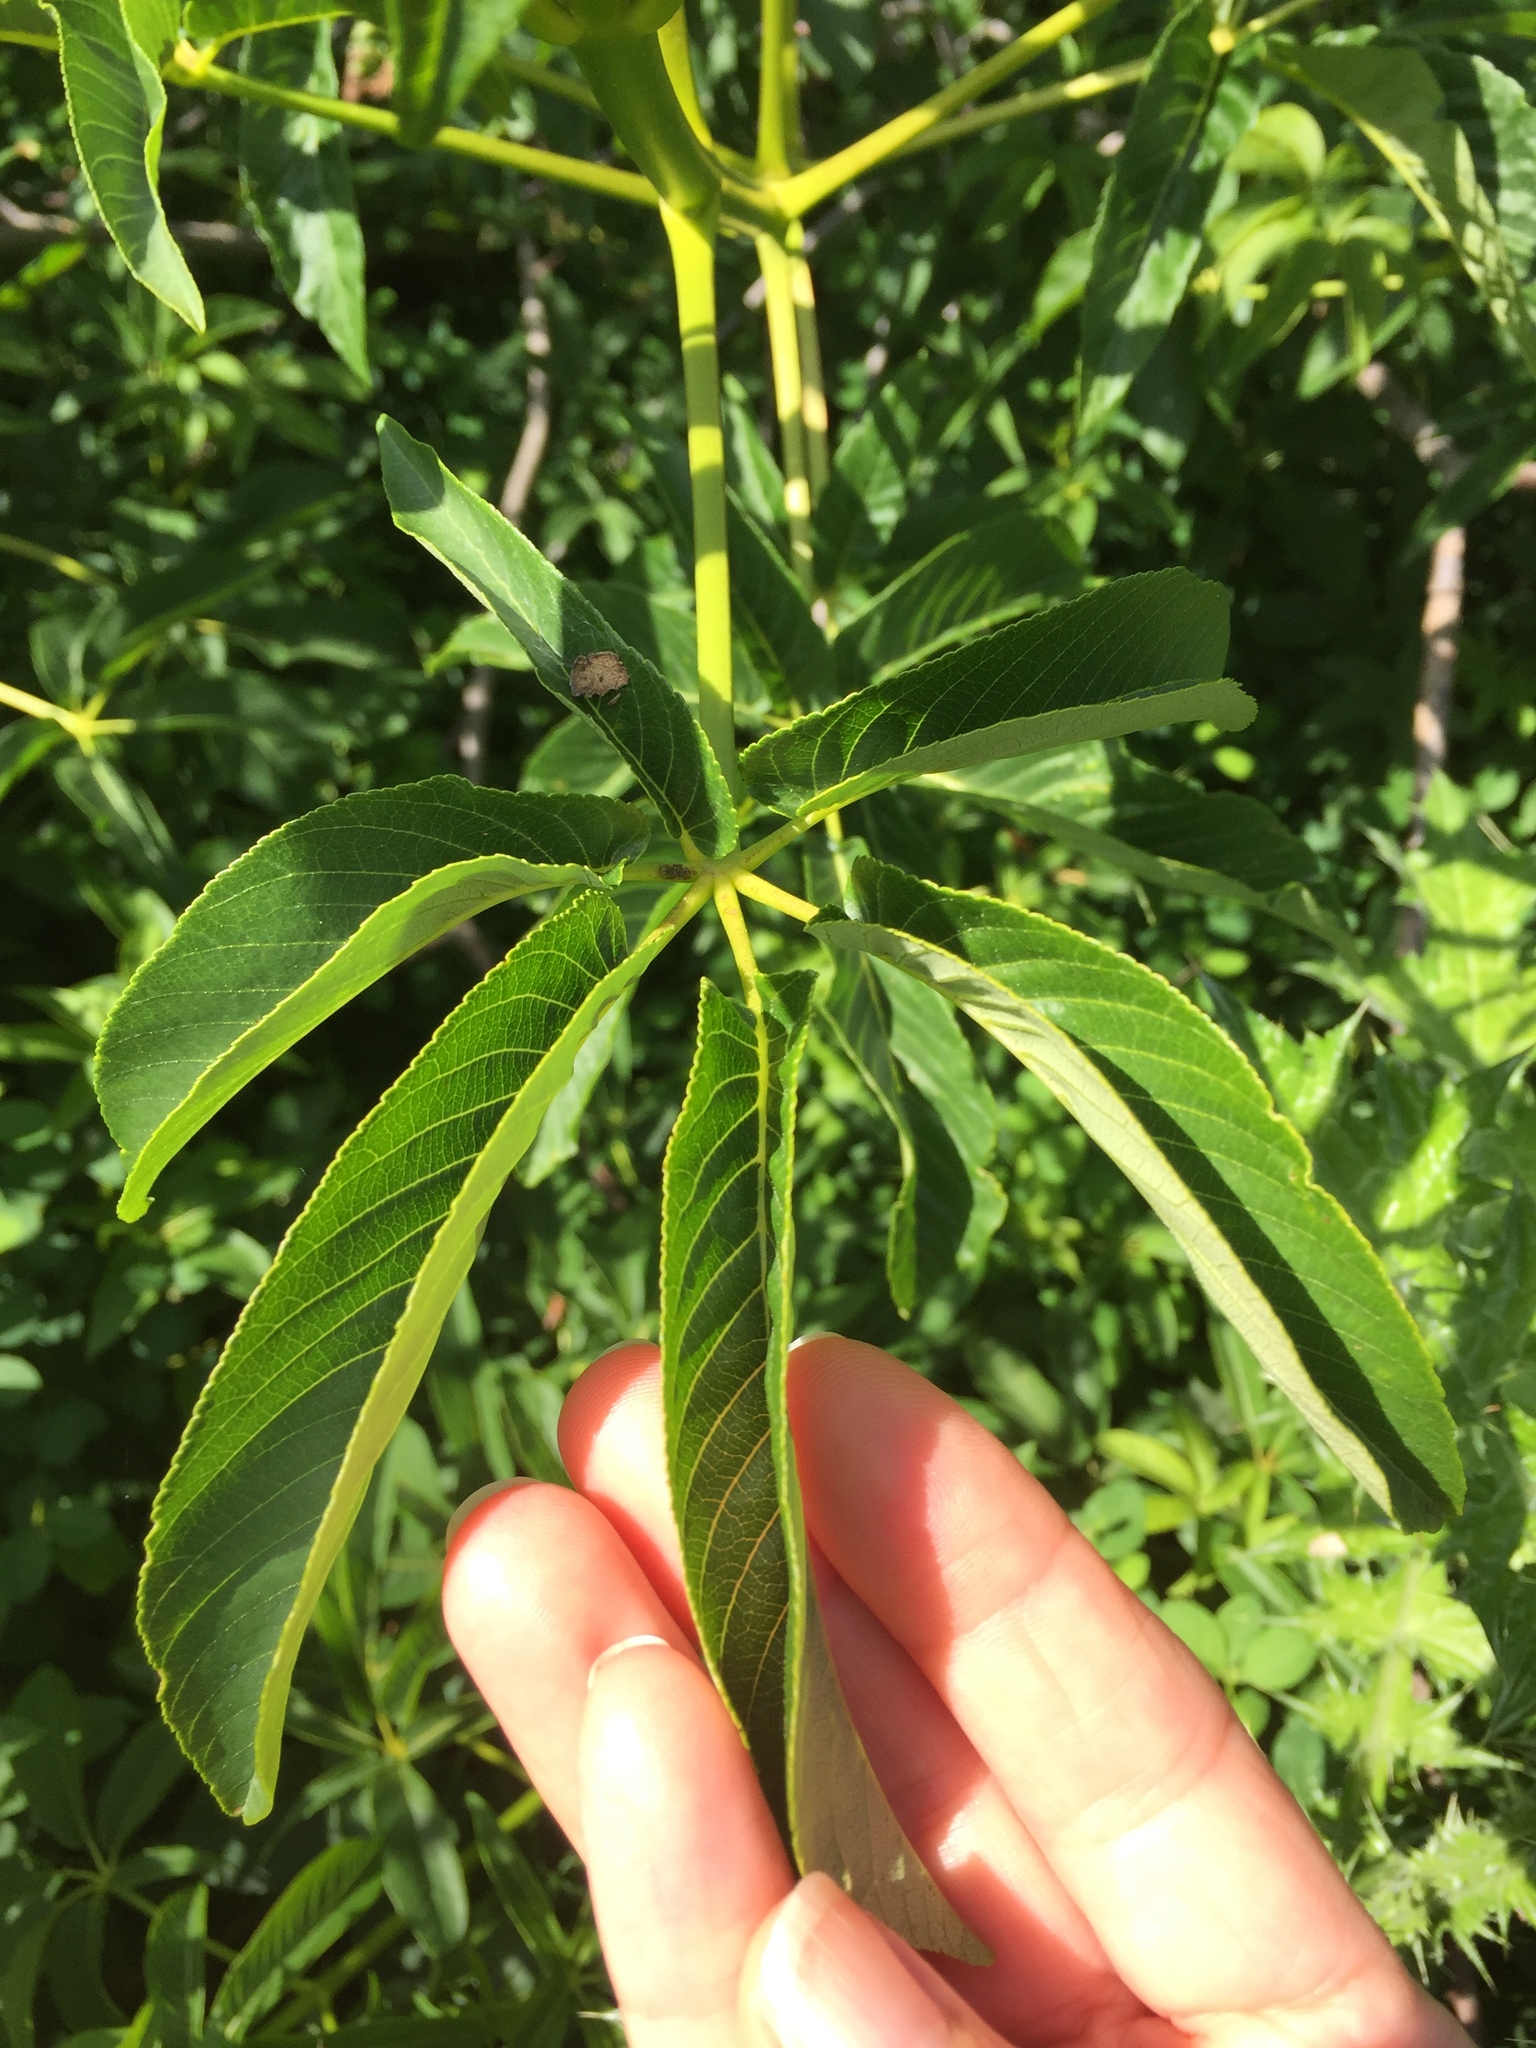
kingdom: Plantae
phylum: Tracheophyta
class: Magnoliopsida
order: Sapindales
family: Sapindaceae
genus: Aesculus
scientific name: Aesculus californica
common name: California buckeye
